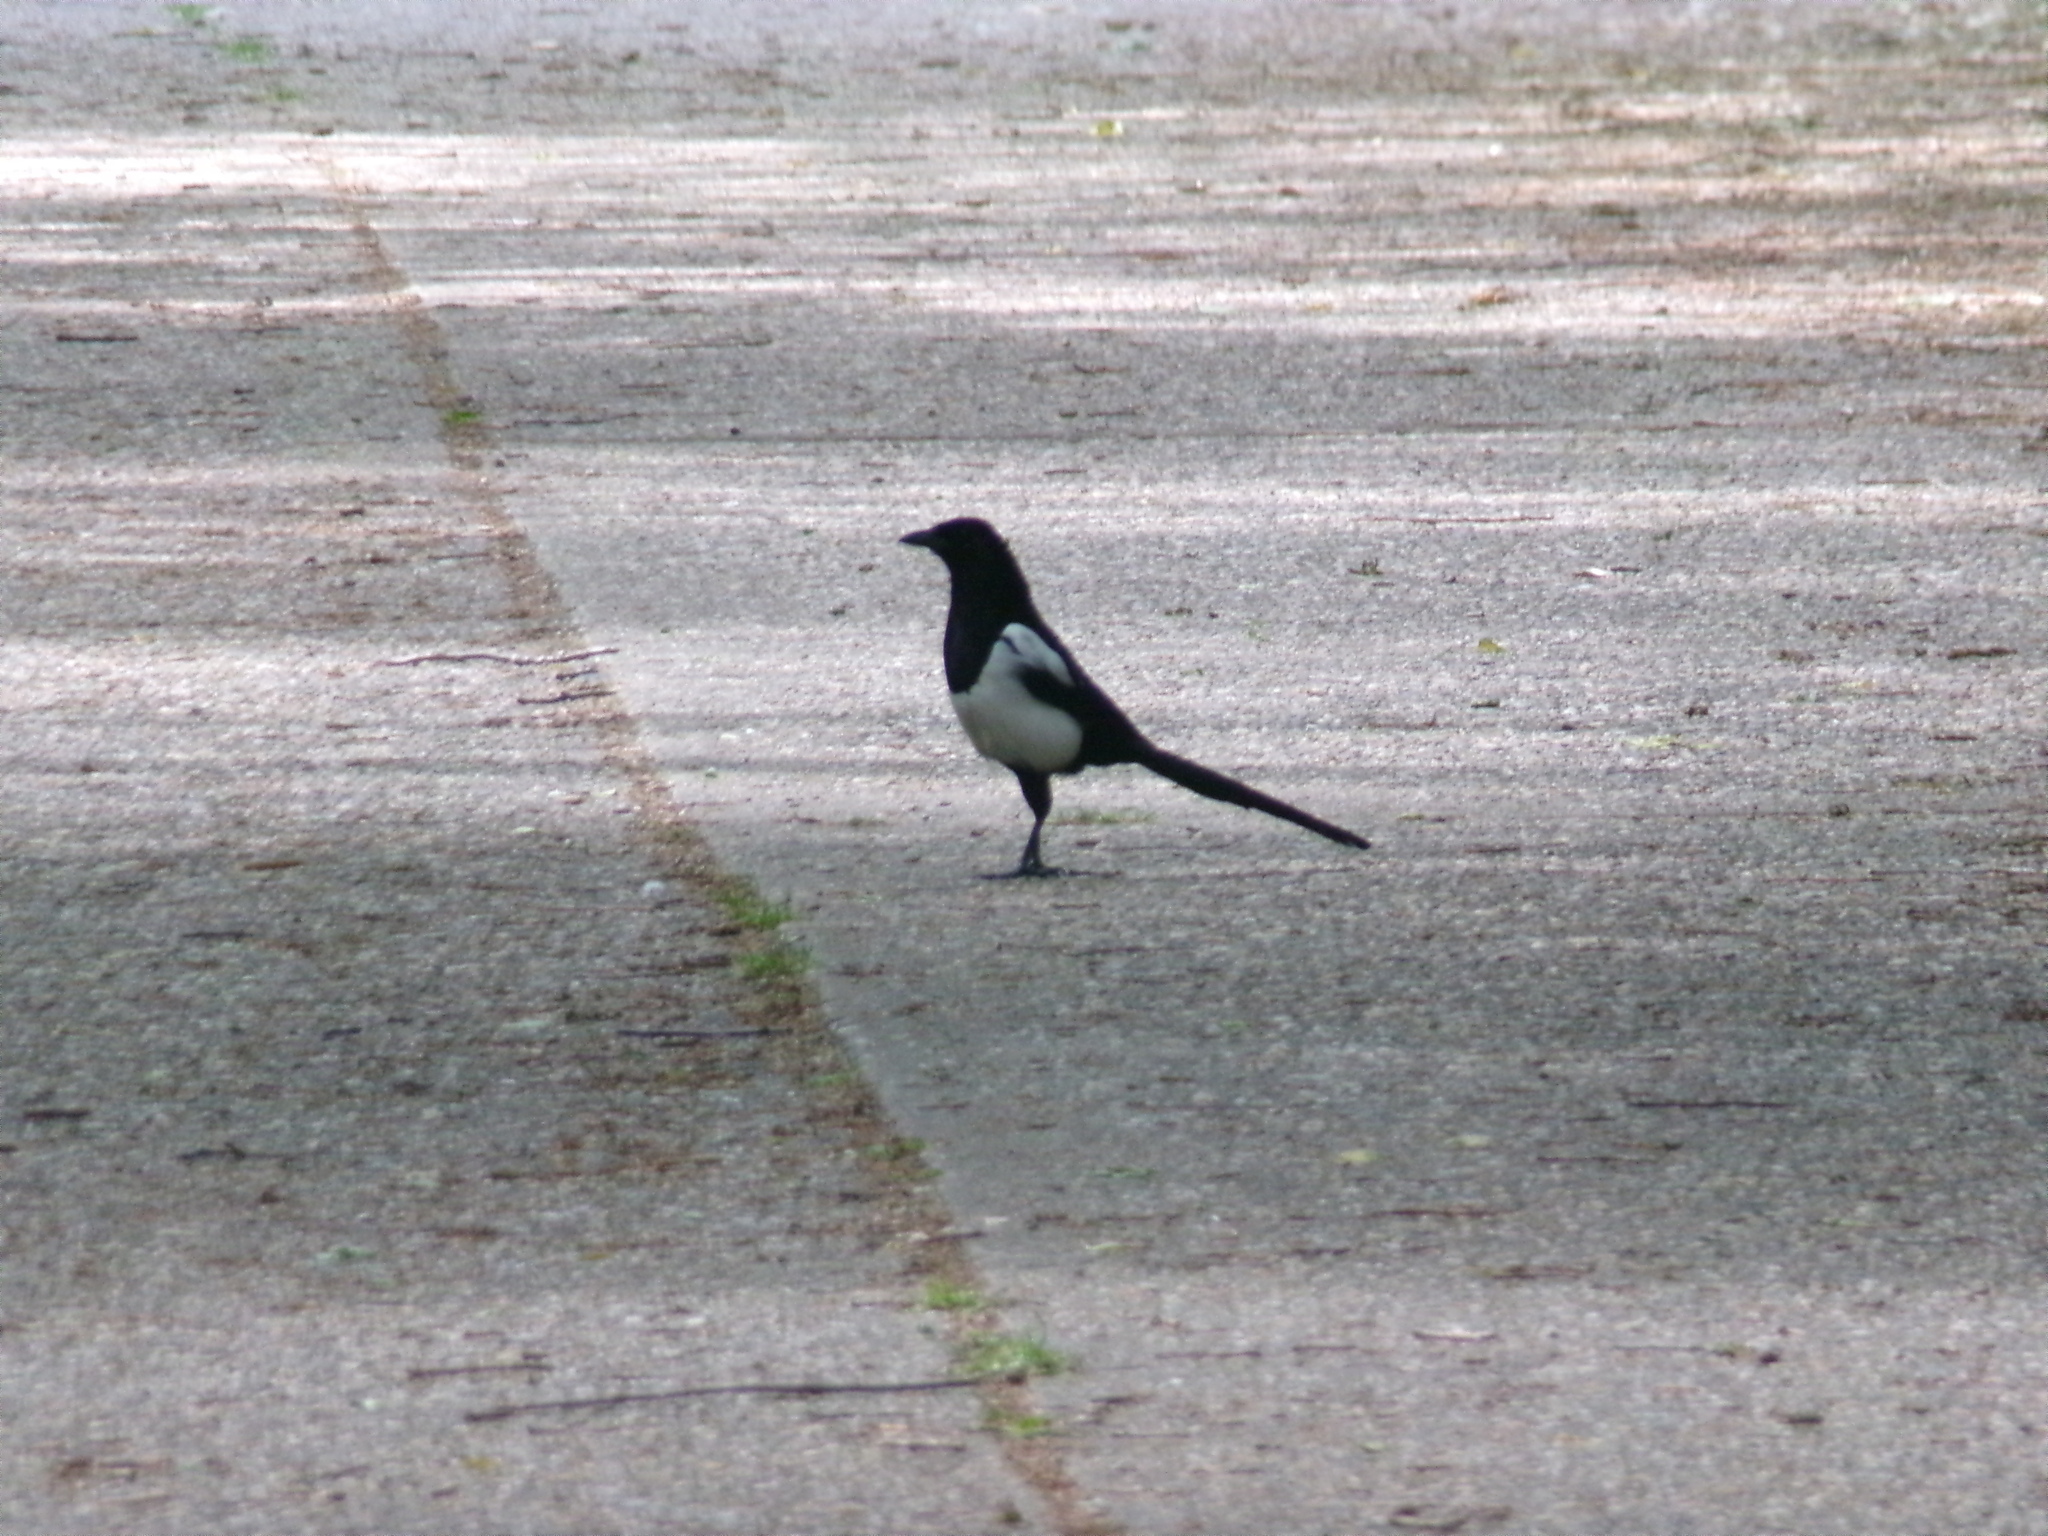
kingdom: Animalia
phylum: Chordata
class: Aves
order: Passeriformes
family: Corvidae
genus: Pica
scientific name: Pica pica
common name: Eurasian magpie
